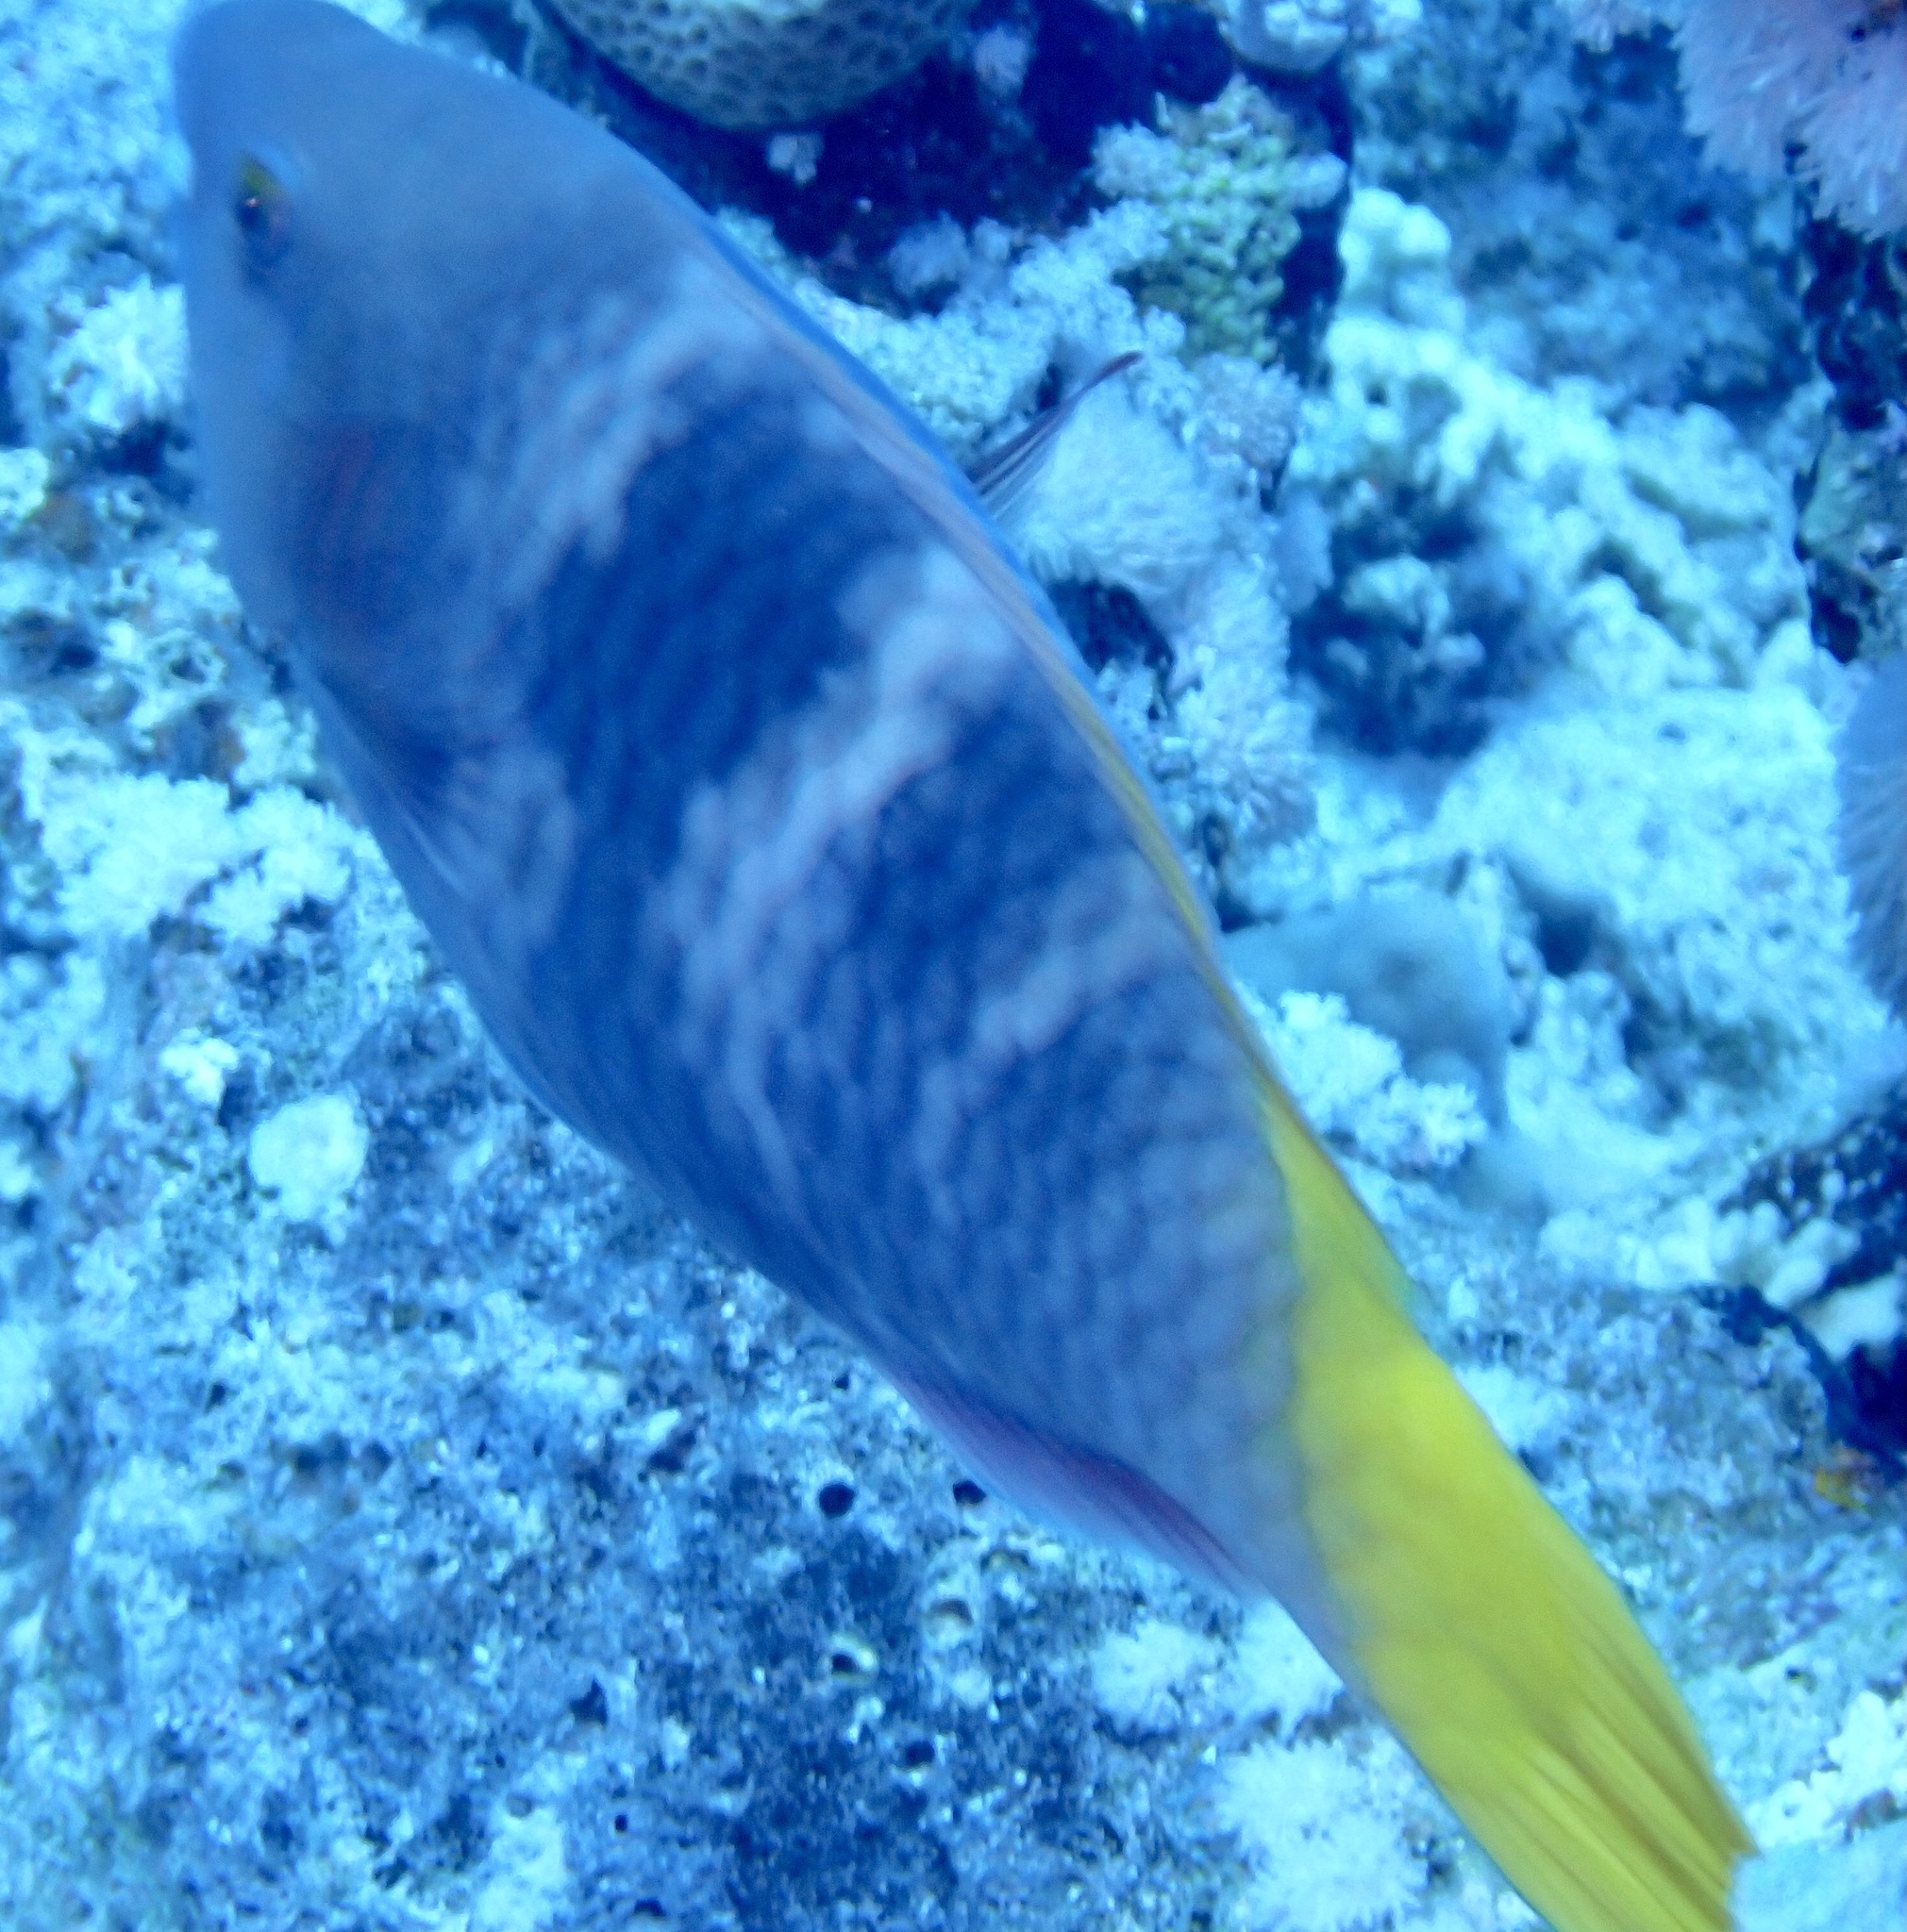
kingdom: Animalia
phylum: Chordata
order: Perciformes
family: Scaridae
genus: Scarus
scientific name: Scarus ferrugineus
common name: Rusty parrotfish
